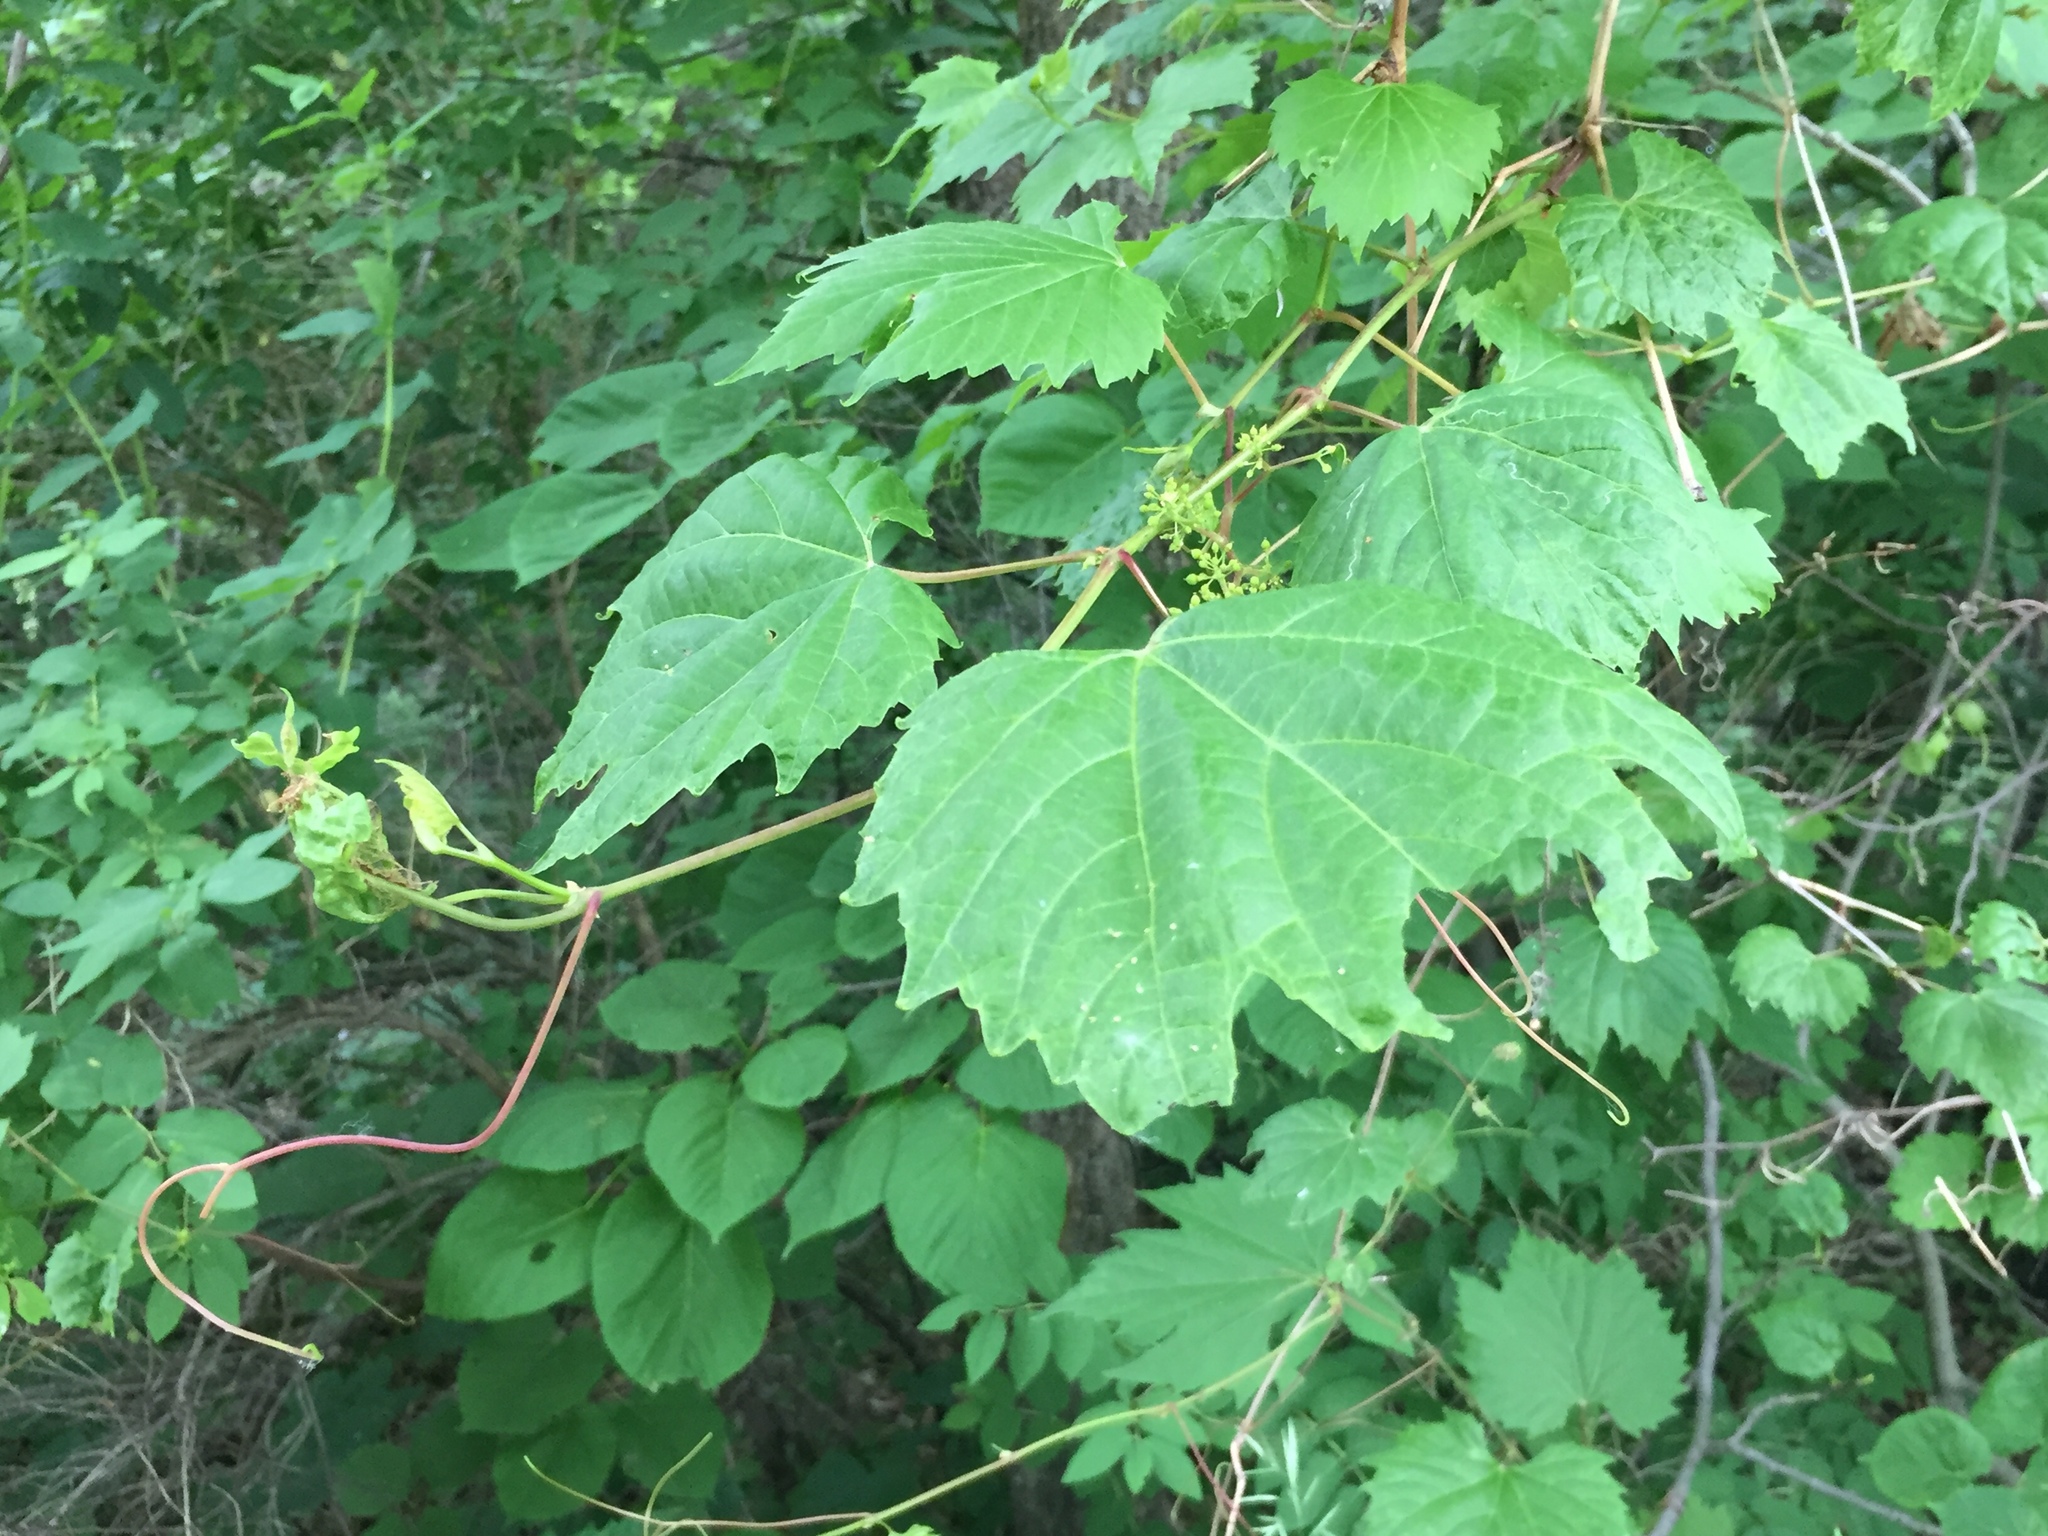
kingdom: Plantae
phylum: Tracheophyta
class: Magnoliopsida
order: Vitales
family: Vitaceae
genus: Vitis
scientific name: Vitis riparia
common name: Frost grape
